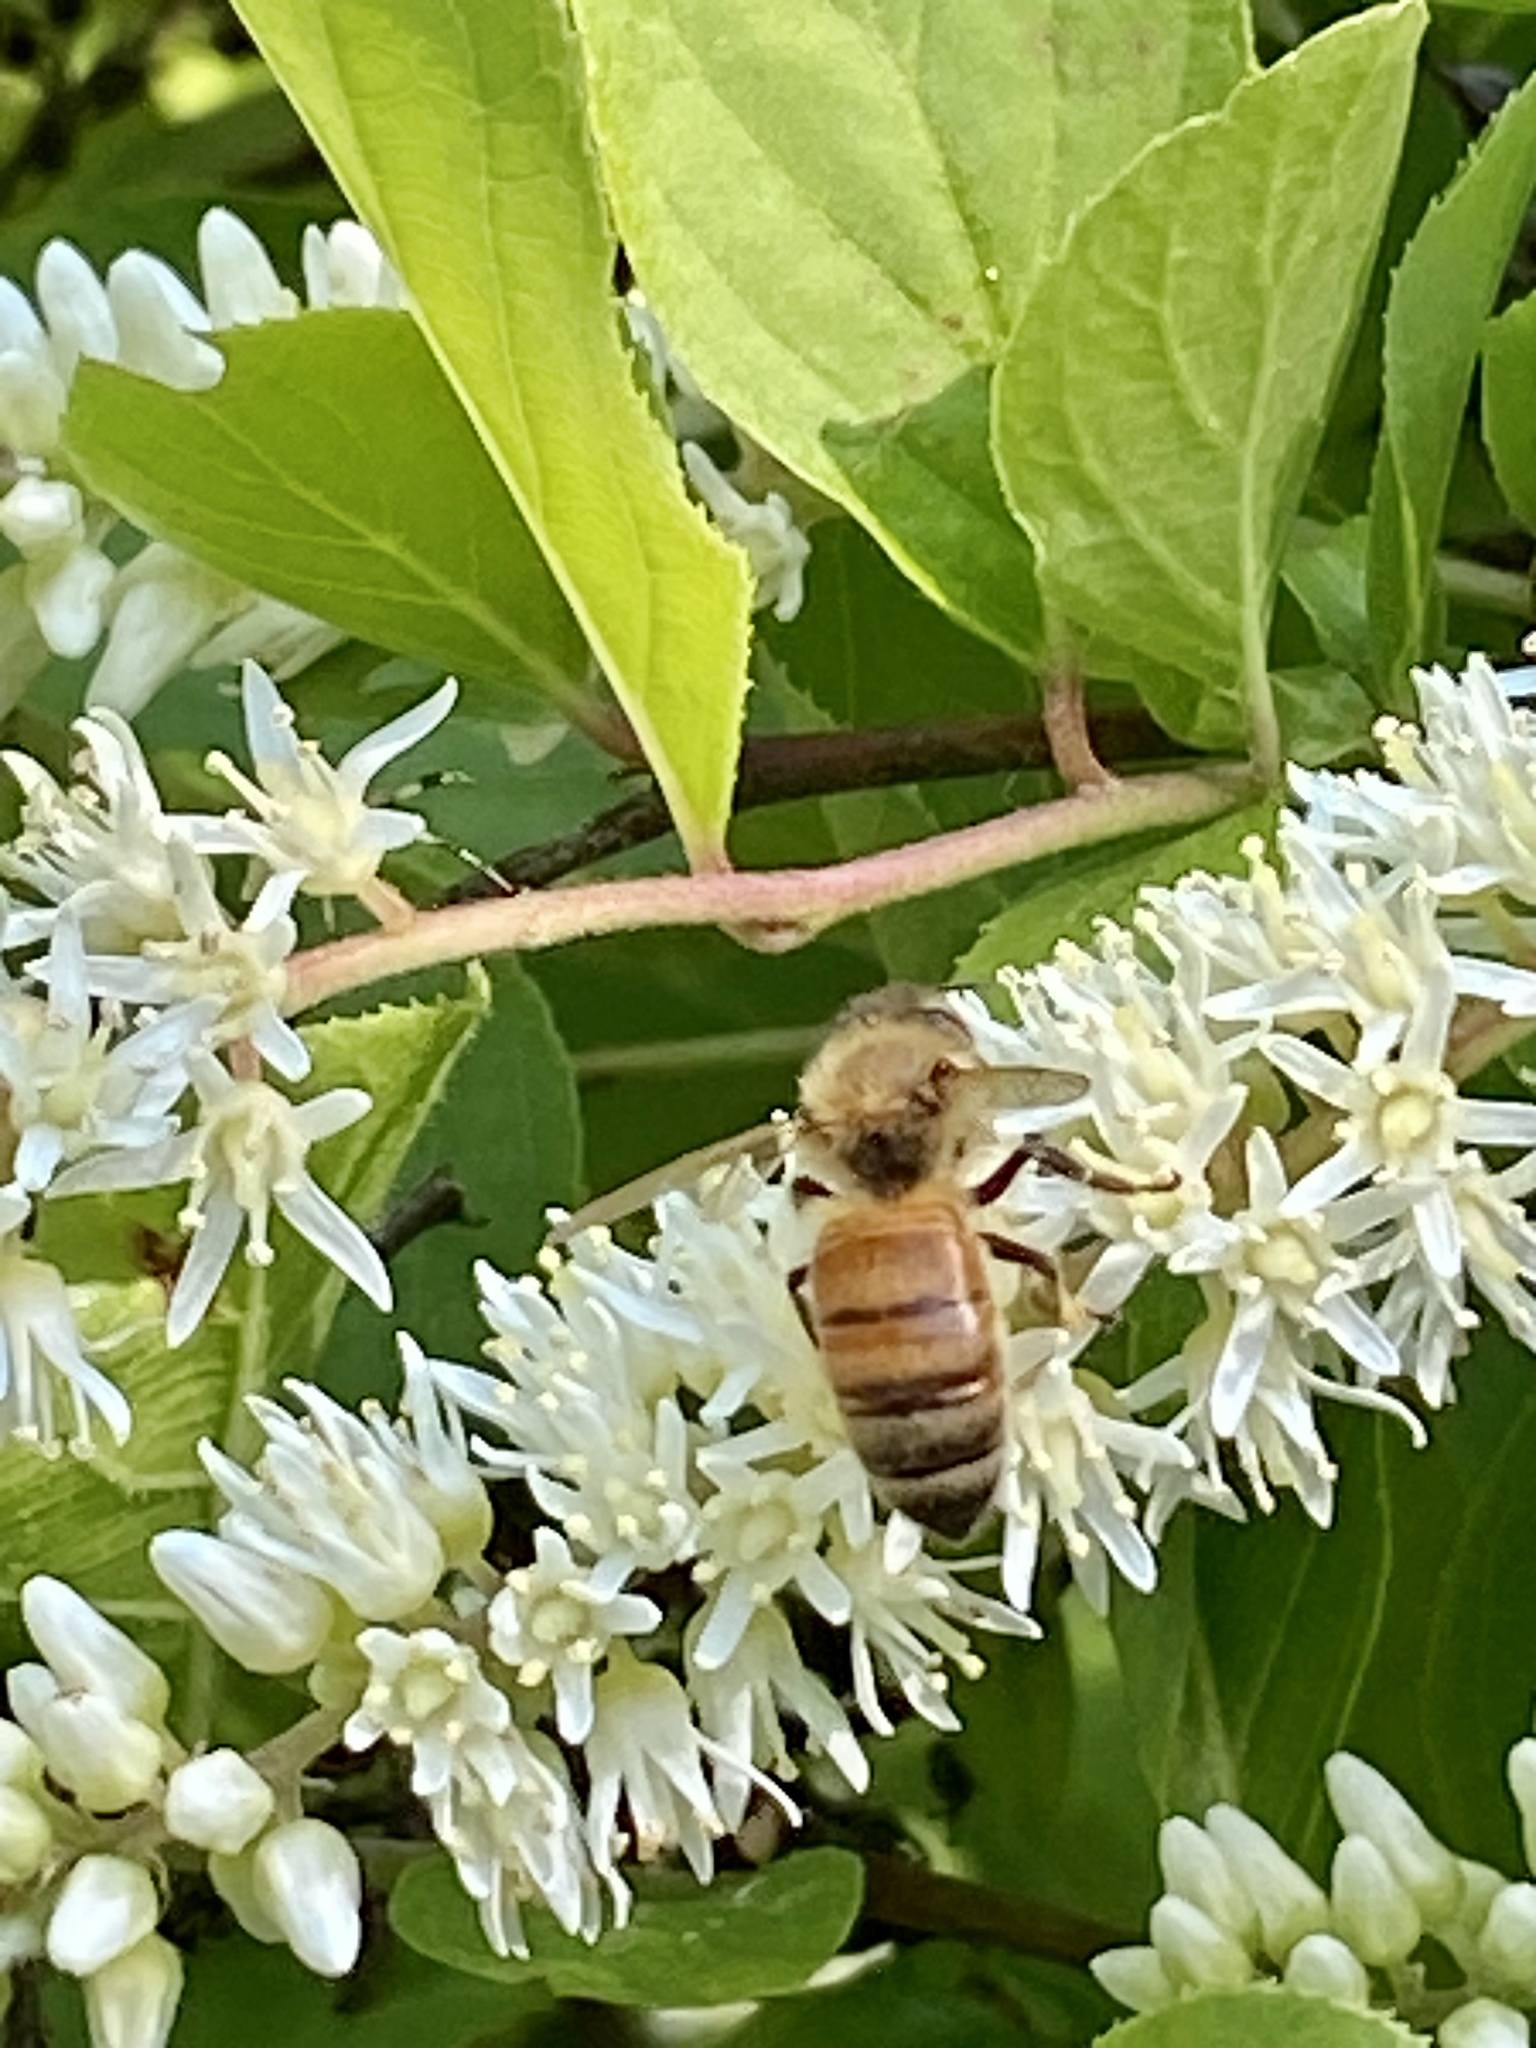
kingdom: Animalia
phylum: Arthropoda
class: Insecta
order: Hymenoptera
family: Apidae
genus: Apis
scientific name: Apis mellifera
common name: Honey bee
